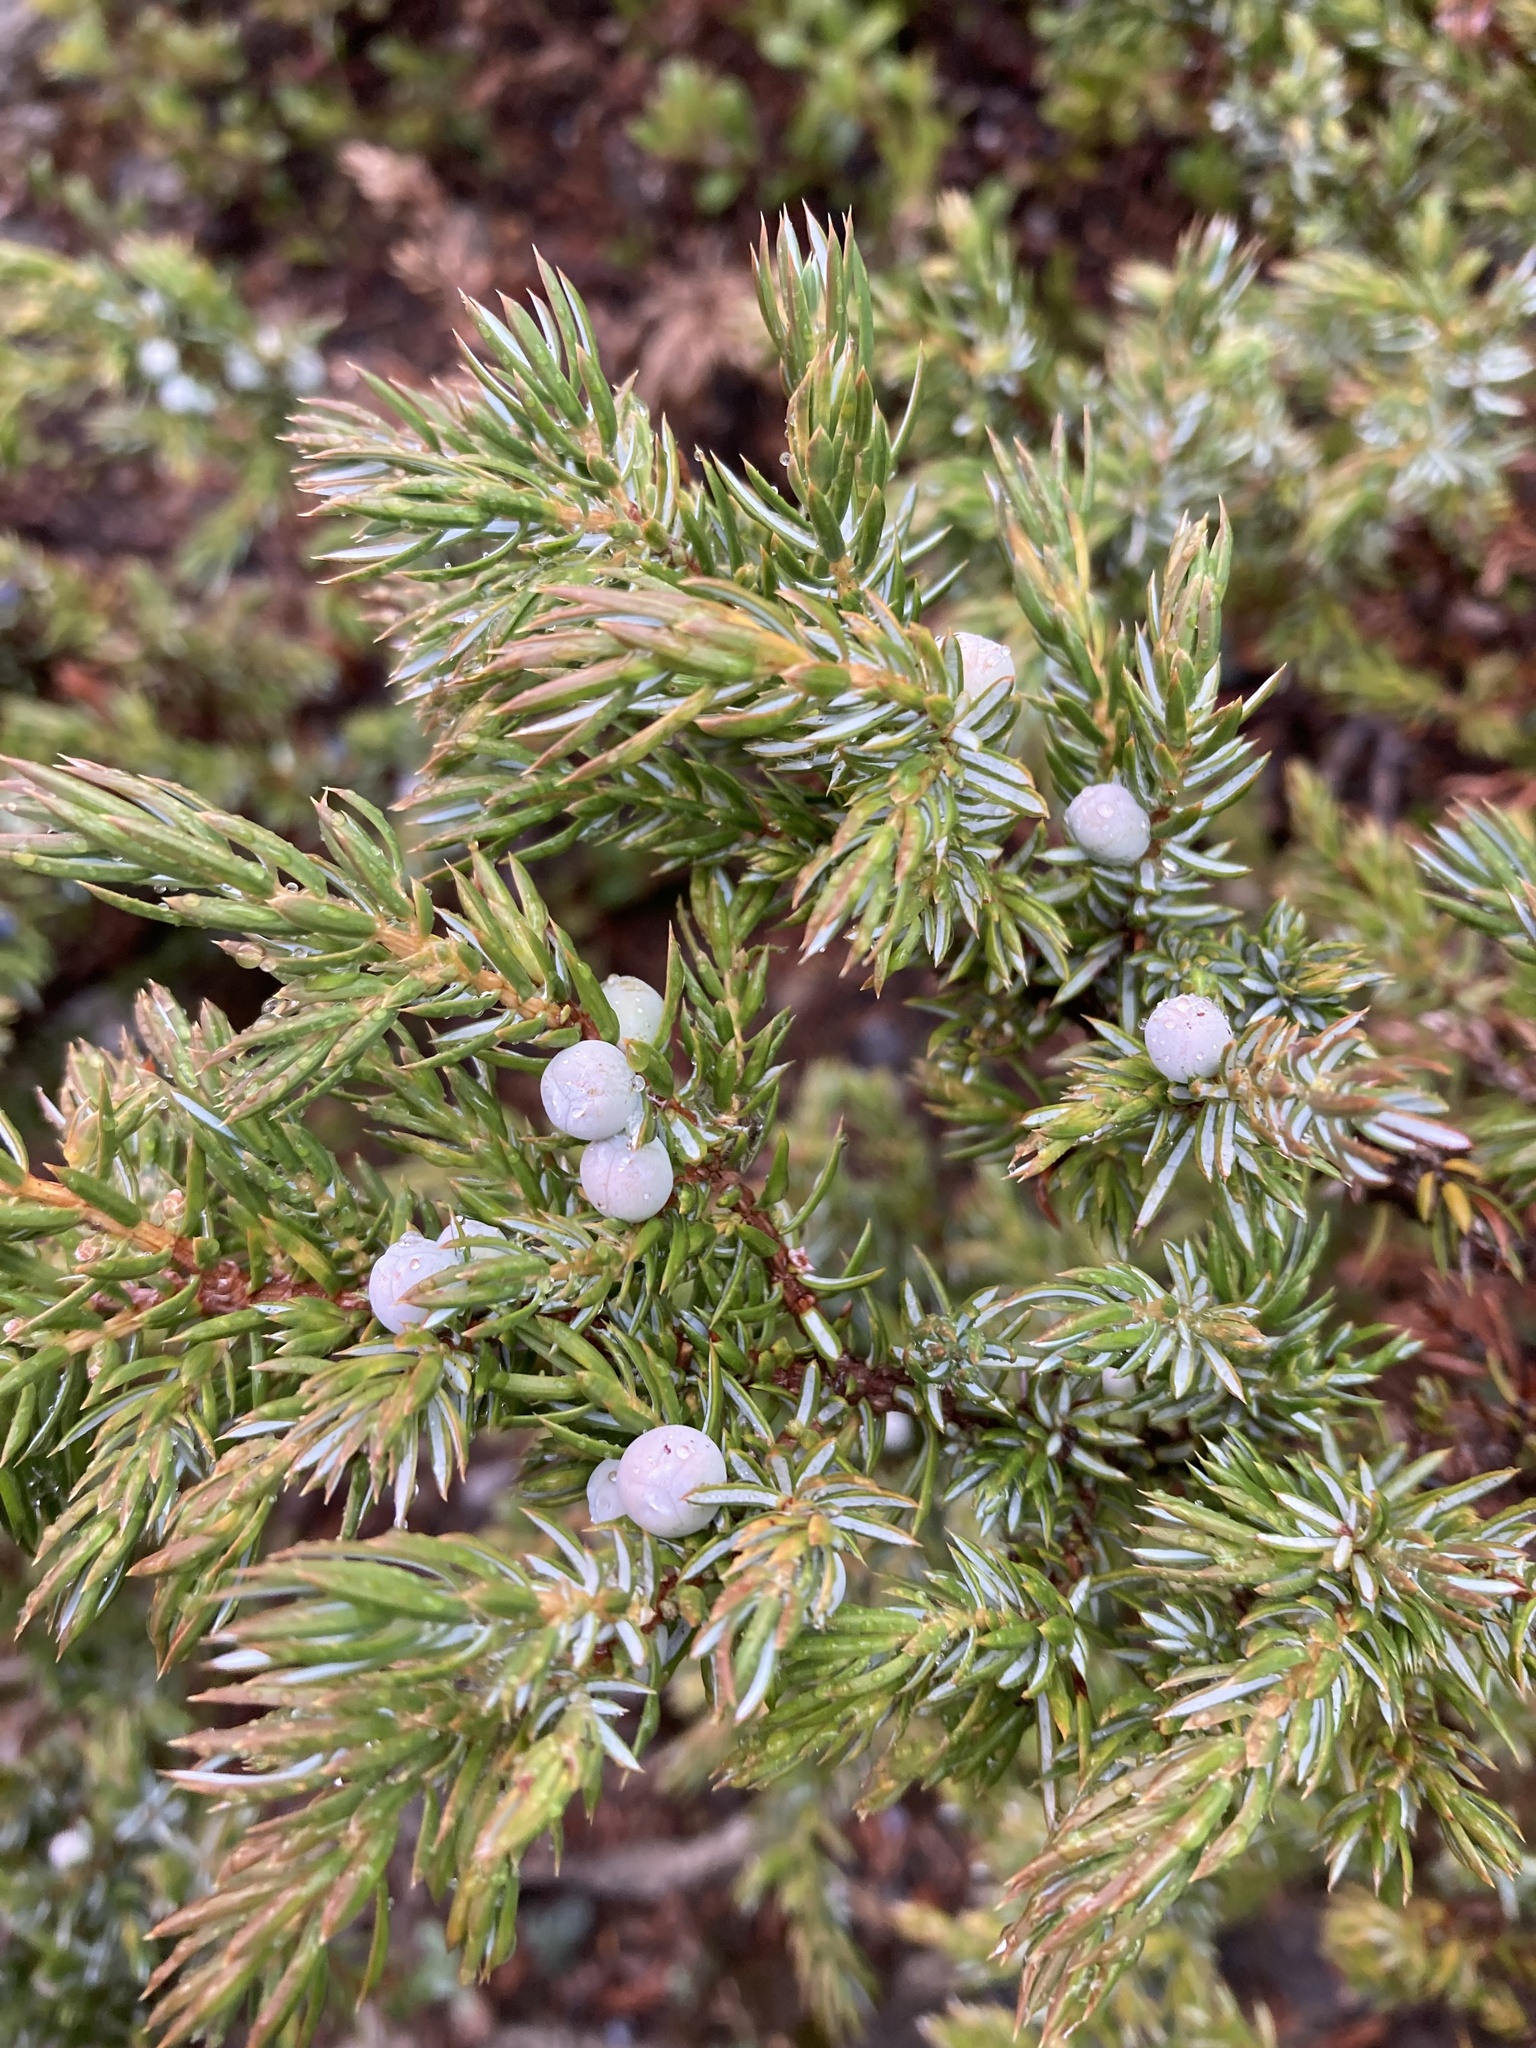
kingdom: Plantae
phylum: Tracheophyta
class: Pinopsida
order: Pinales
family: Cupressaceae
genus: Juniperus
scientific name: Juniperus communis
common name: Common juniper
